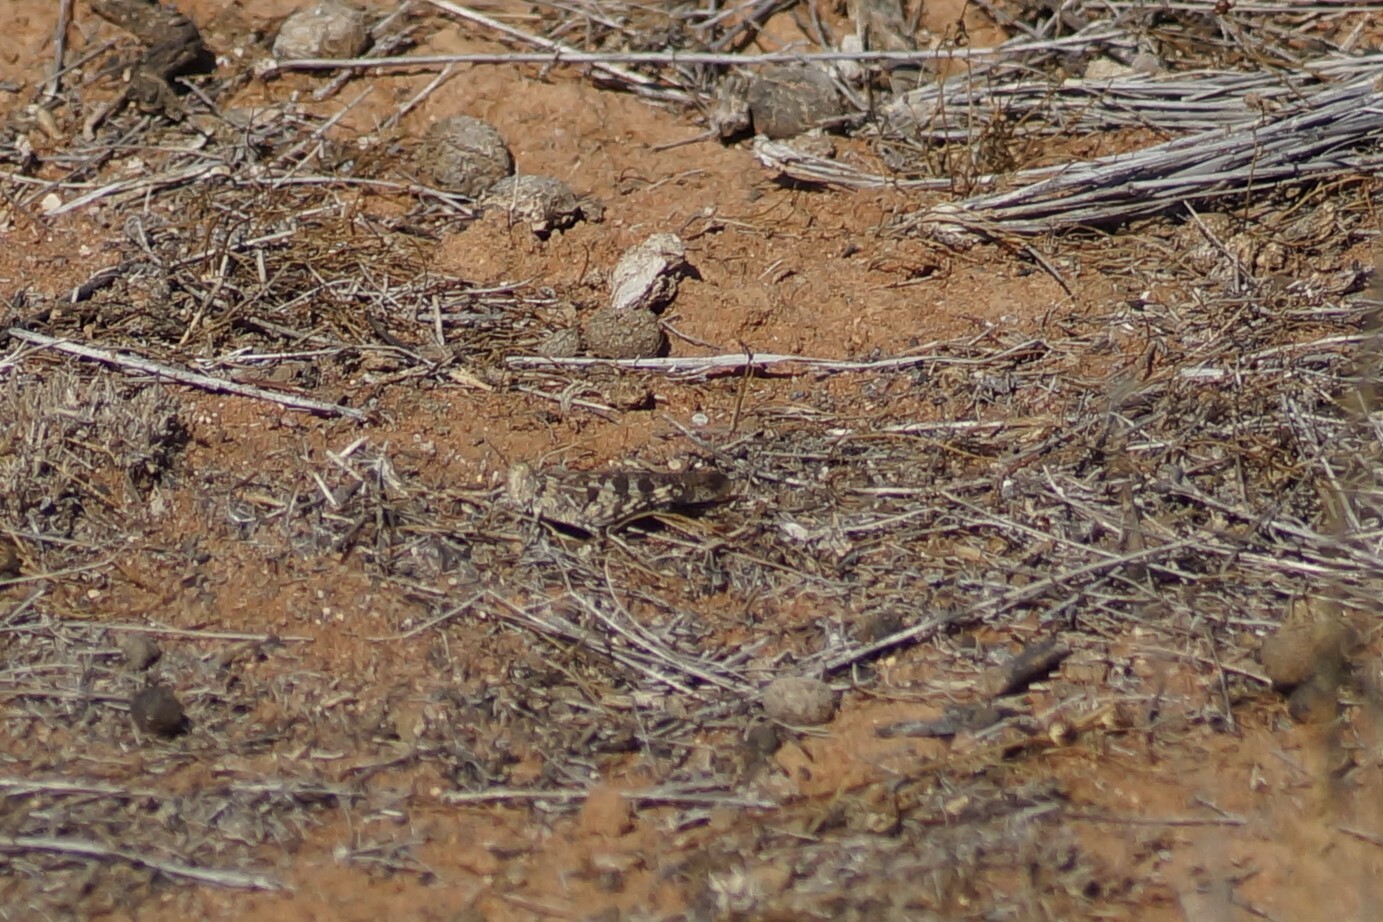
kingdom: Animalia
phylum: Arthropoda
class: Insecta
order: Orthoptera
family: Acrididae
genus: Chortoicetes
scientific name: Chortoicetes terminifera
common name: Australian plague locust
